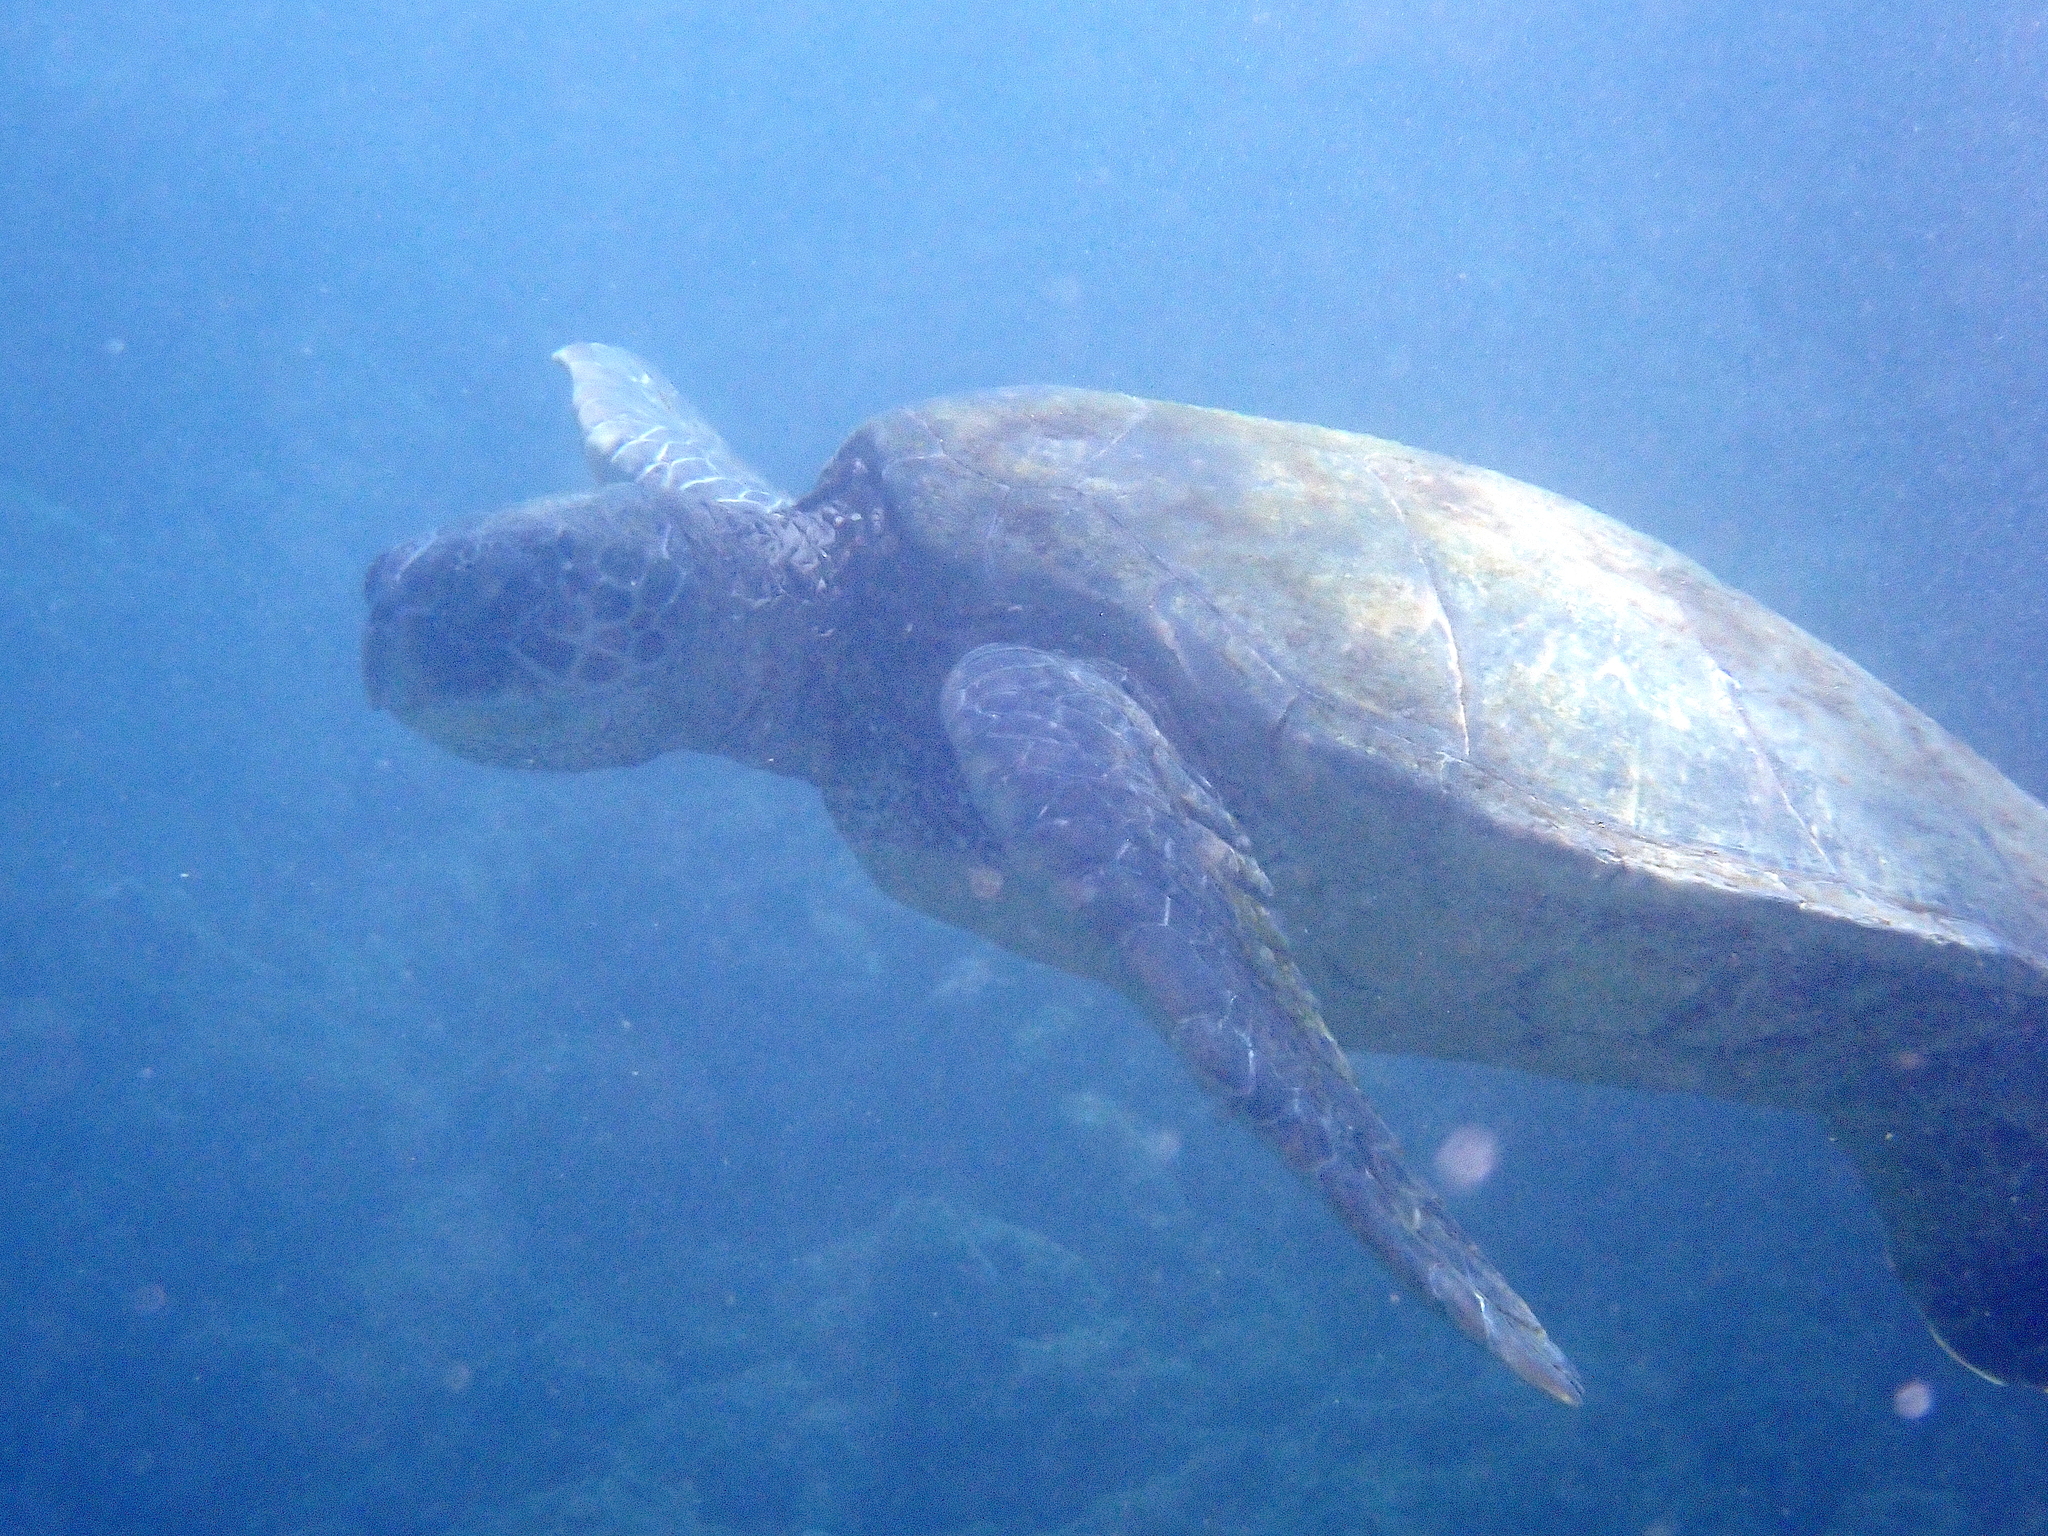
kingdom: Animalia
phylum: Chordata
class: Testudines
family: Cheloniidae
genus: Chelonia
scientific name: Chelonia mydas
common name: Green turtle
